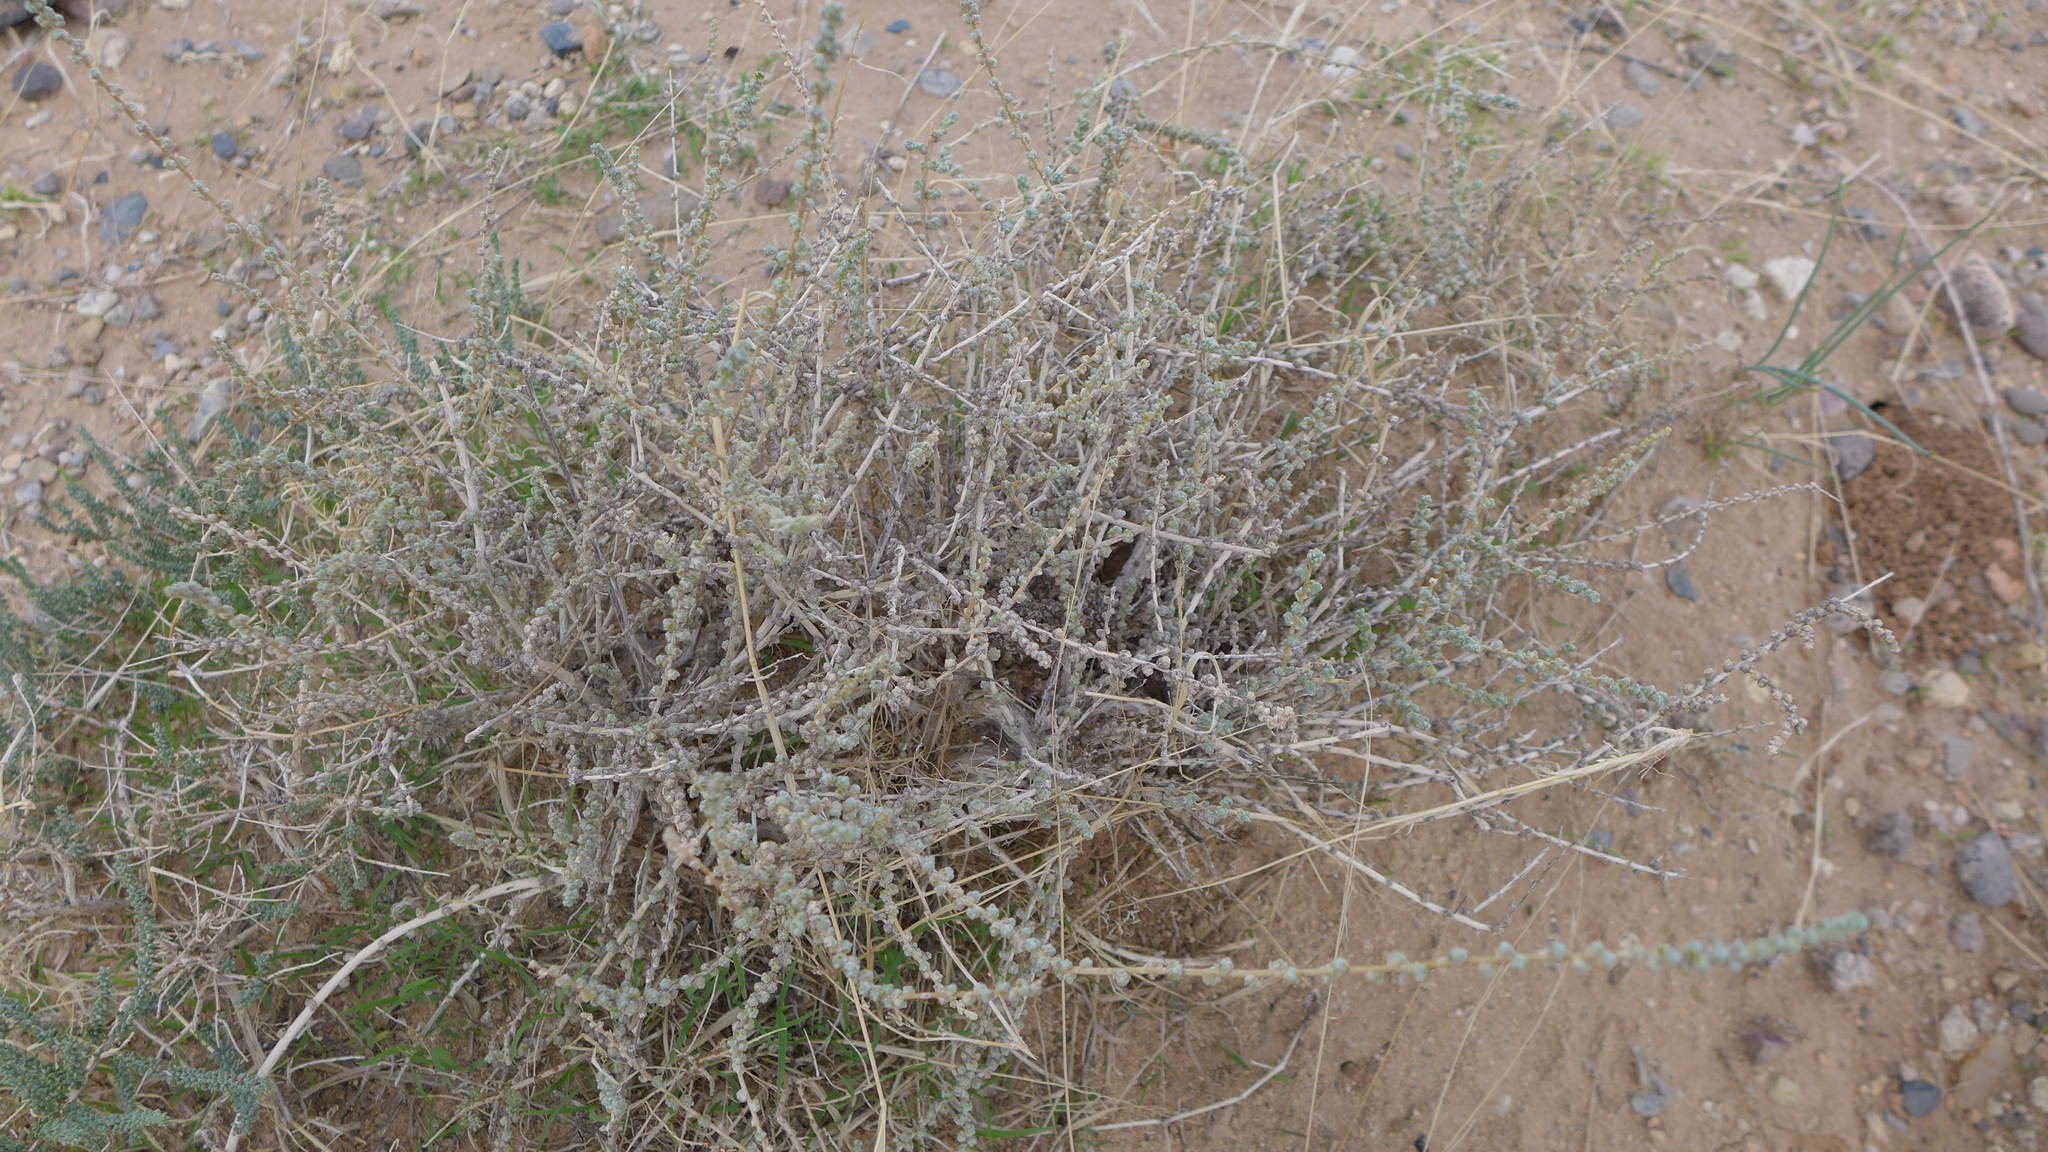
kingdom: Plantae
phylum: Tracheophyta
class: Magnoliopsida
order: Caryophyllales
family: Amaranthaceae
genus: Caroxylon
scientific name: Caroxylon passerinum
